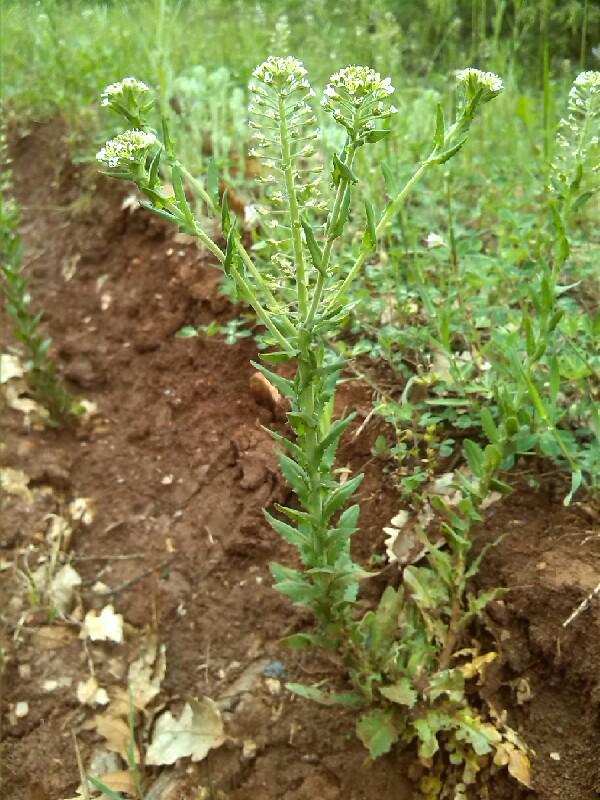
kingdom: Plantae
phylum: Tracheophyta
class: Magnoliopsida
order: Brassicales
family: Brassicaceae
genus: Lepidium
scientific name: Lepidium campestre
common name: Field pepperwort
